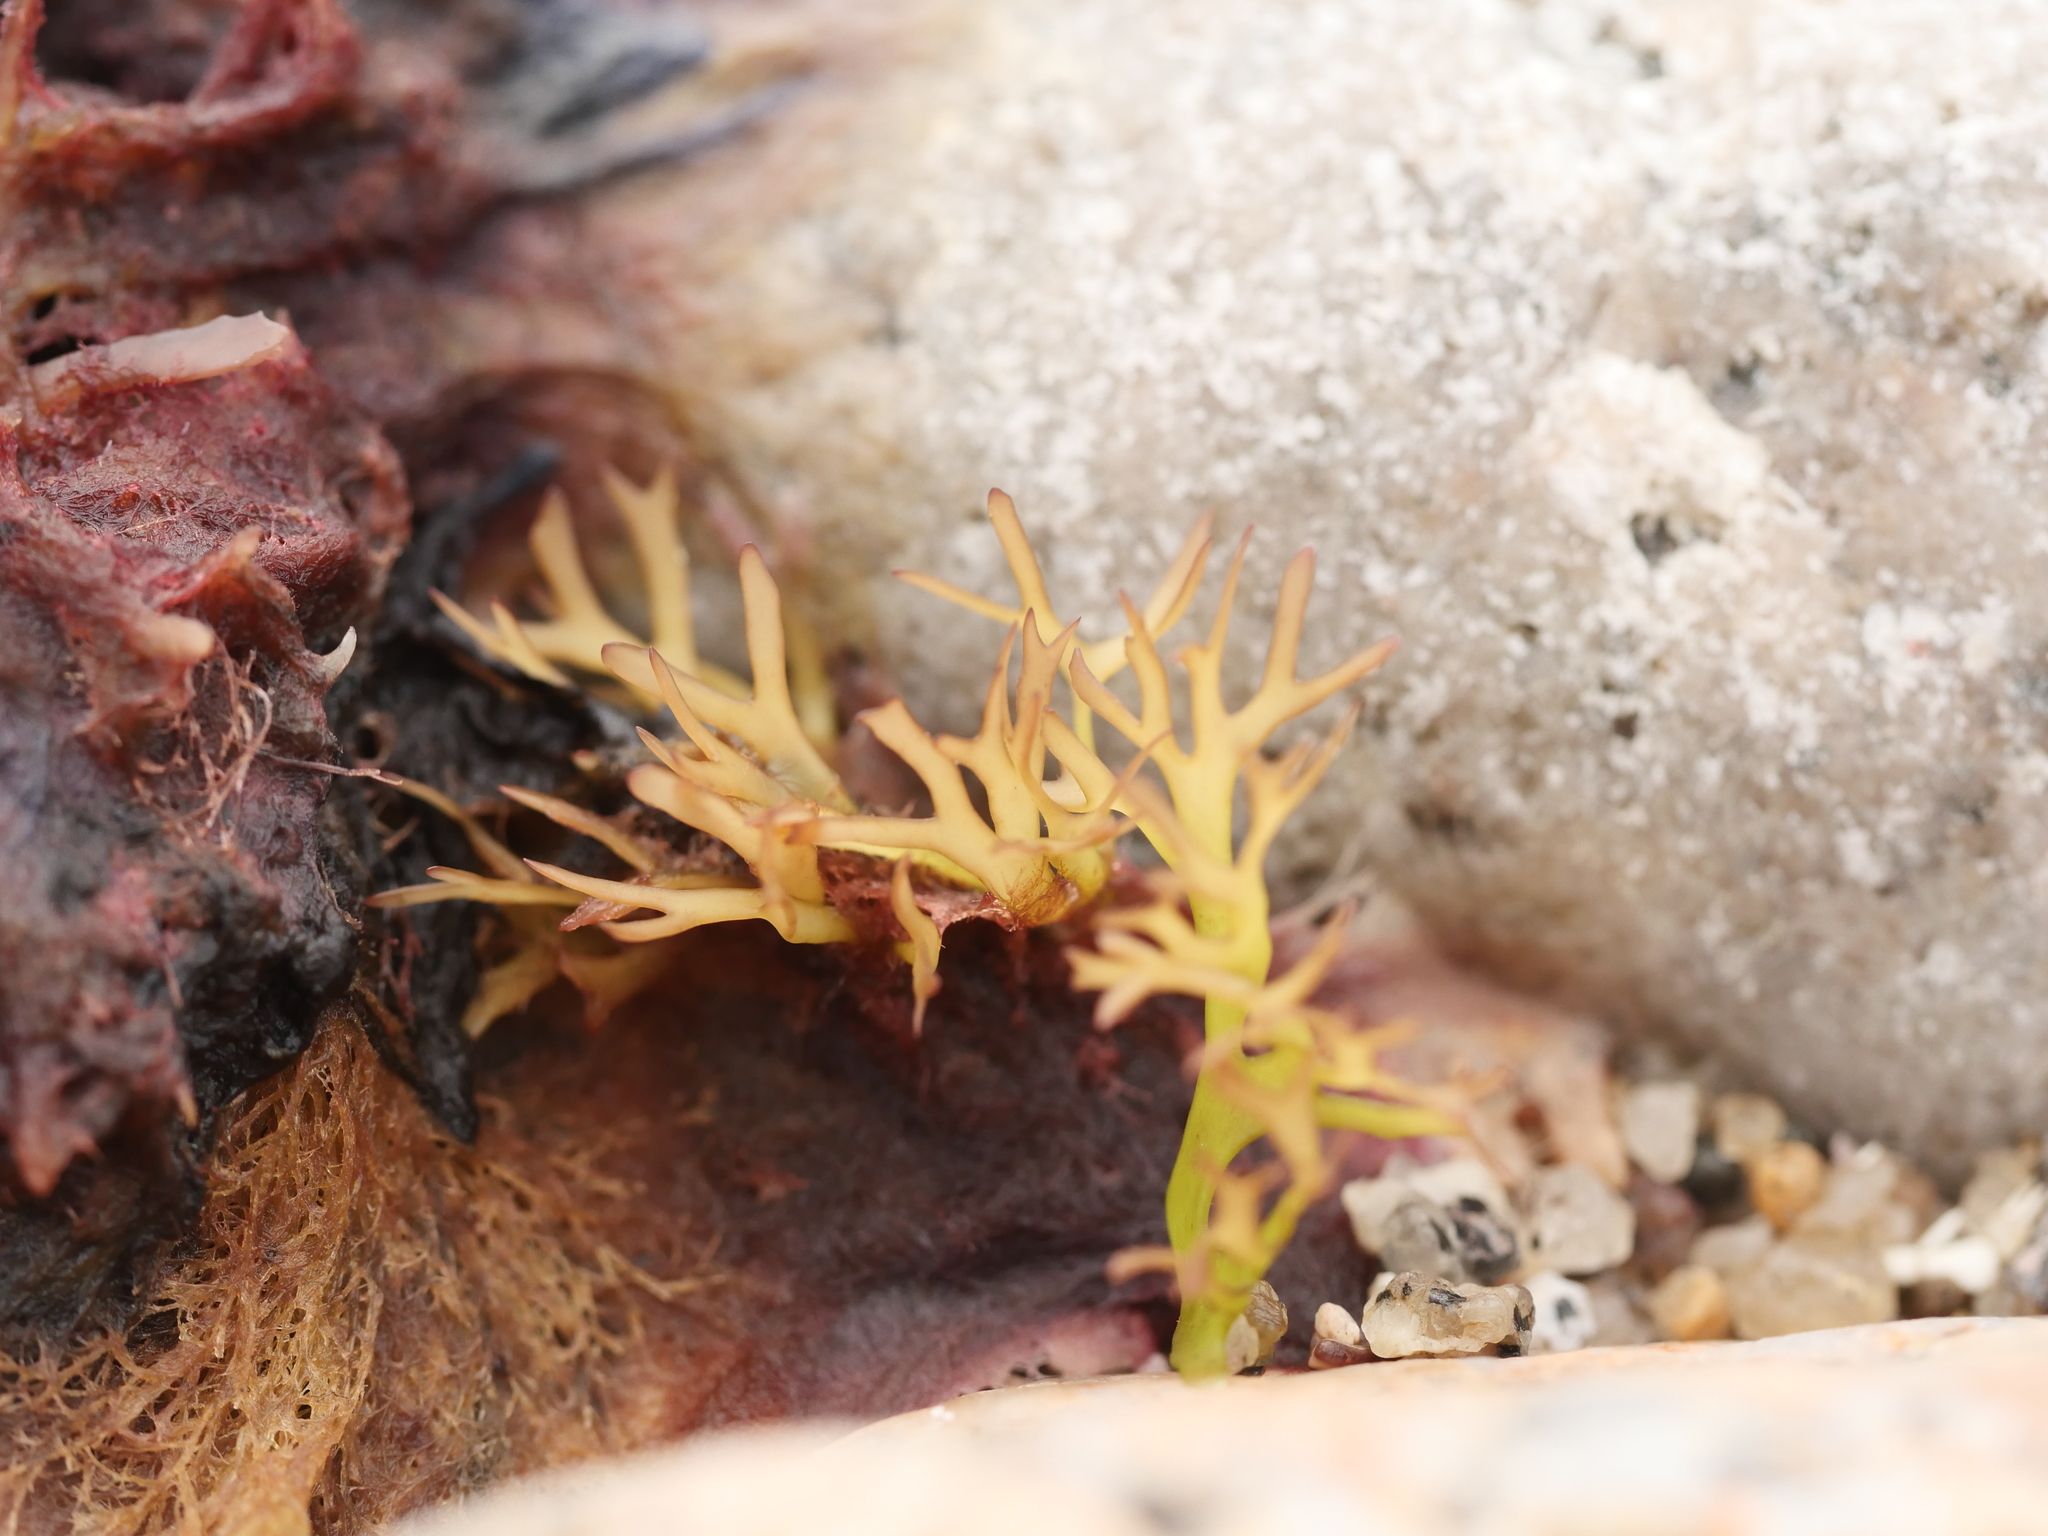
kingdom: Plantae
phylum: Rhodophyta
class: Florideophyceae
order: Gigartinales
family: Gigartinaceae
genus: Chondrus
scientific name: Chondrus crispus
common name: Carrageen
